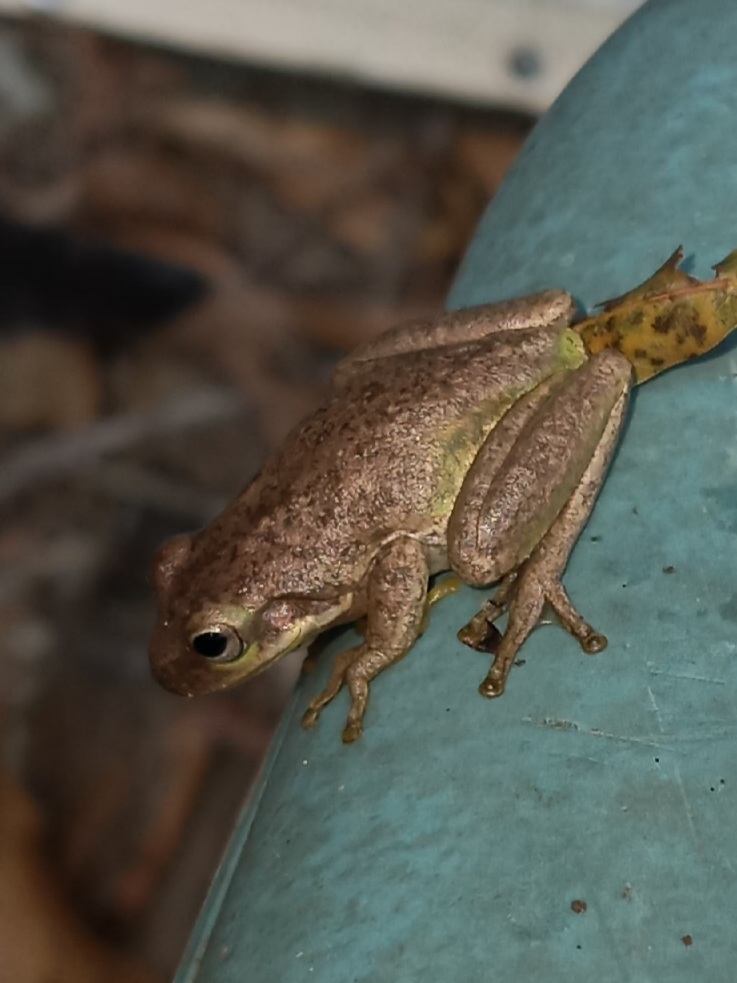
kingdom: Animalia
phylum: Chordata
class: Amphibia
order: Anura
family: Hylidae
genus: Dryophytes
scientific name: Dryophytes squirellus
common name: Squirrel treefrog
